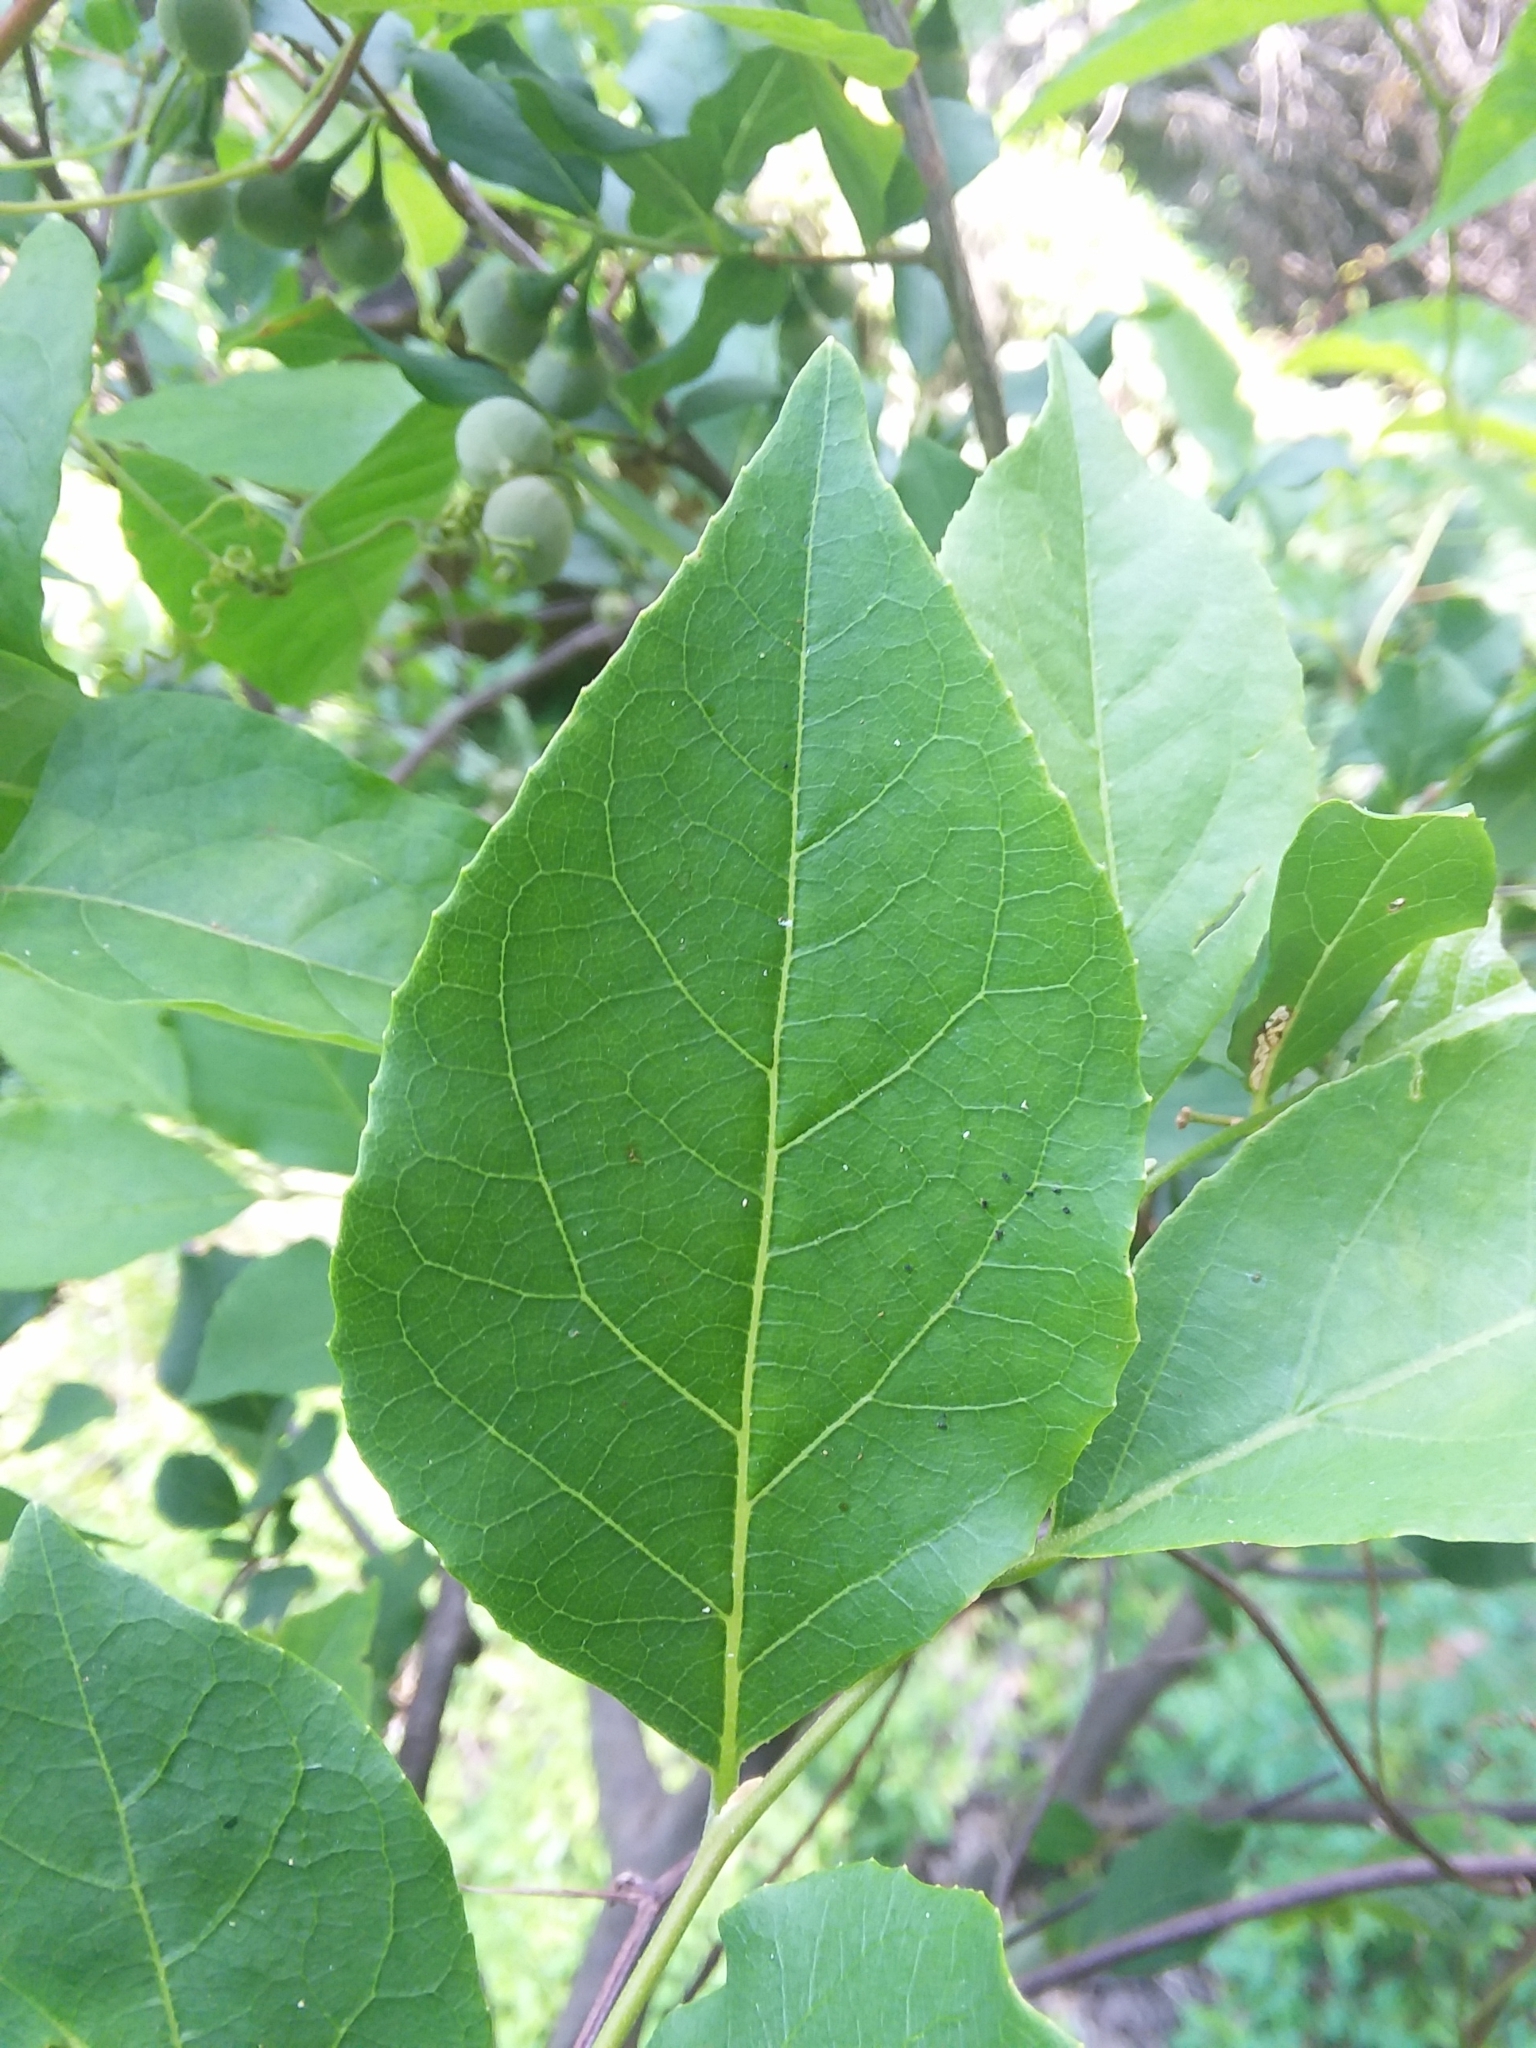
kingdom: Plantae
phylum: Tracheophyta
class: Magnoliopsida
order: Ericales
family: Styracaceae
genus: Styrax
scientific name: Styrax americanus
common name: American snowbell
